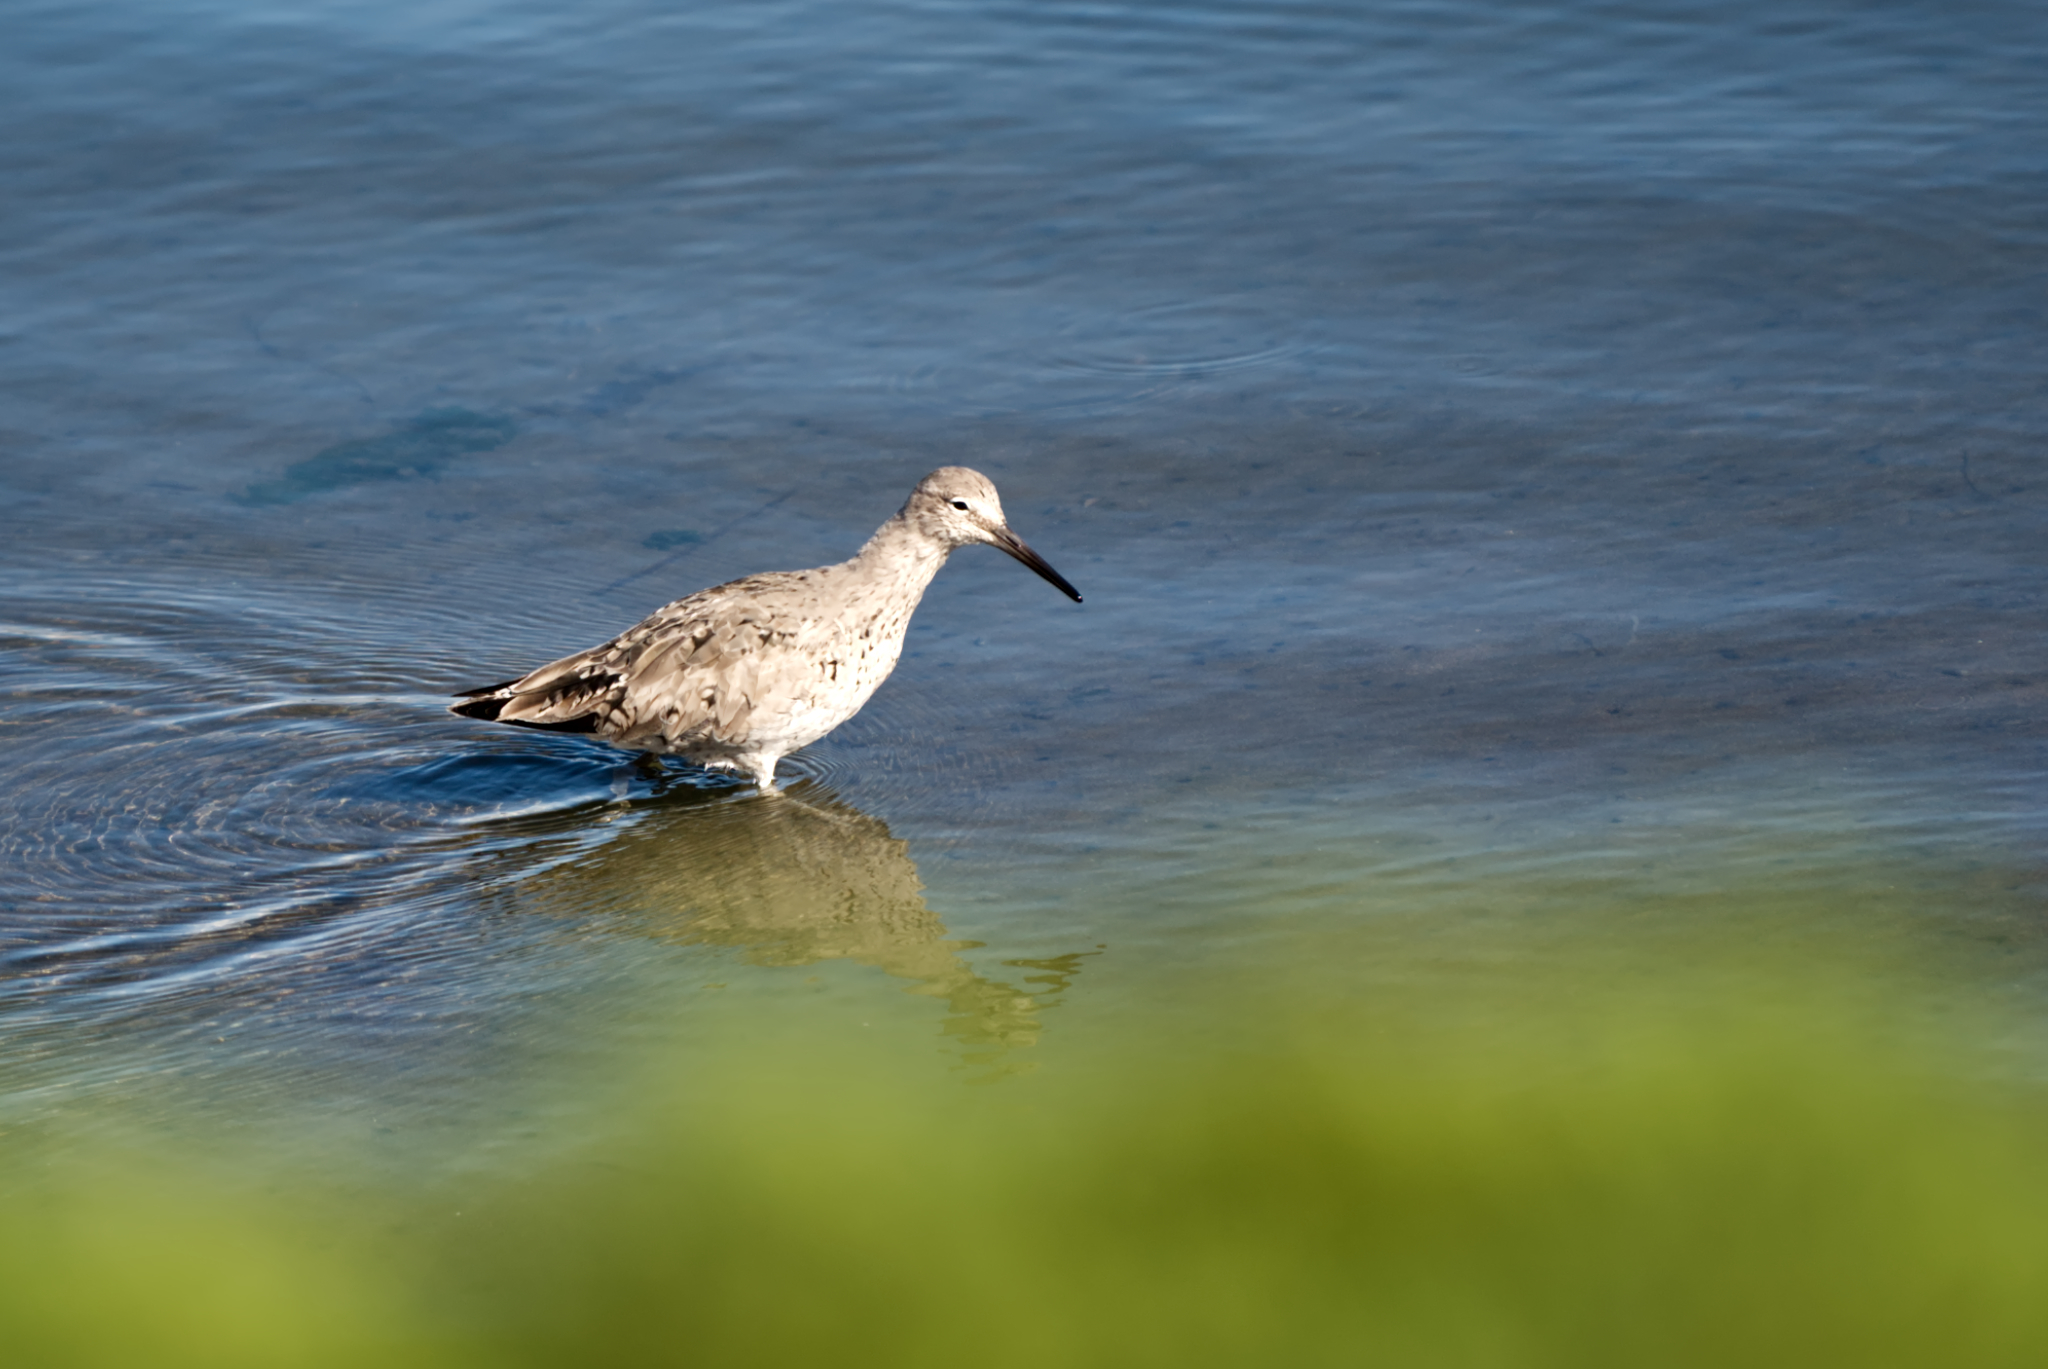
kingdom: Animalia
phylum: Chordata
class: Aves
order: Charadriiformes
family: Scolopacidae
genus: Tringa
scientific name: Tringa semipalmata
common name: Willet
